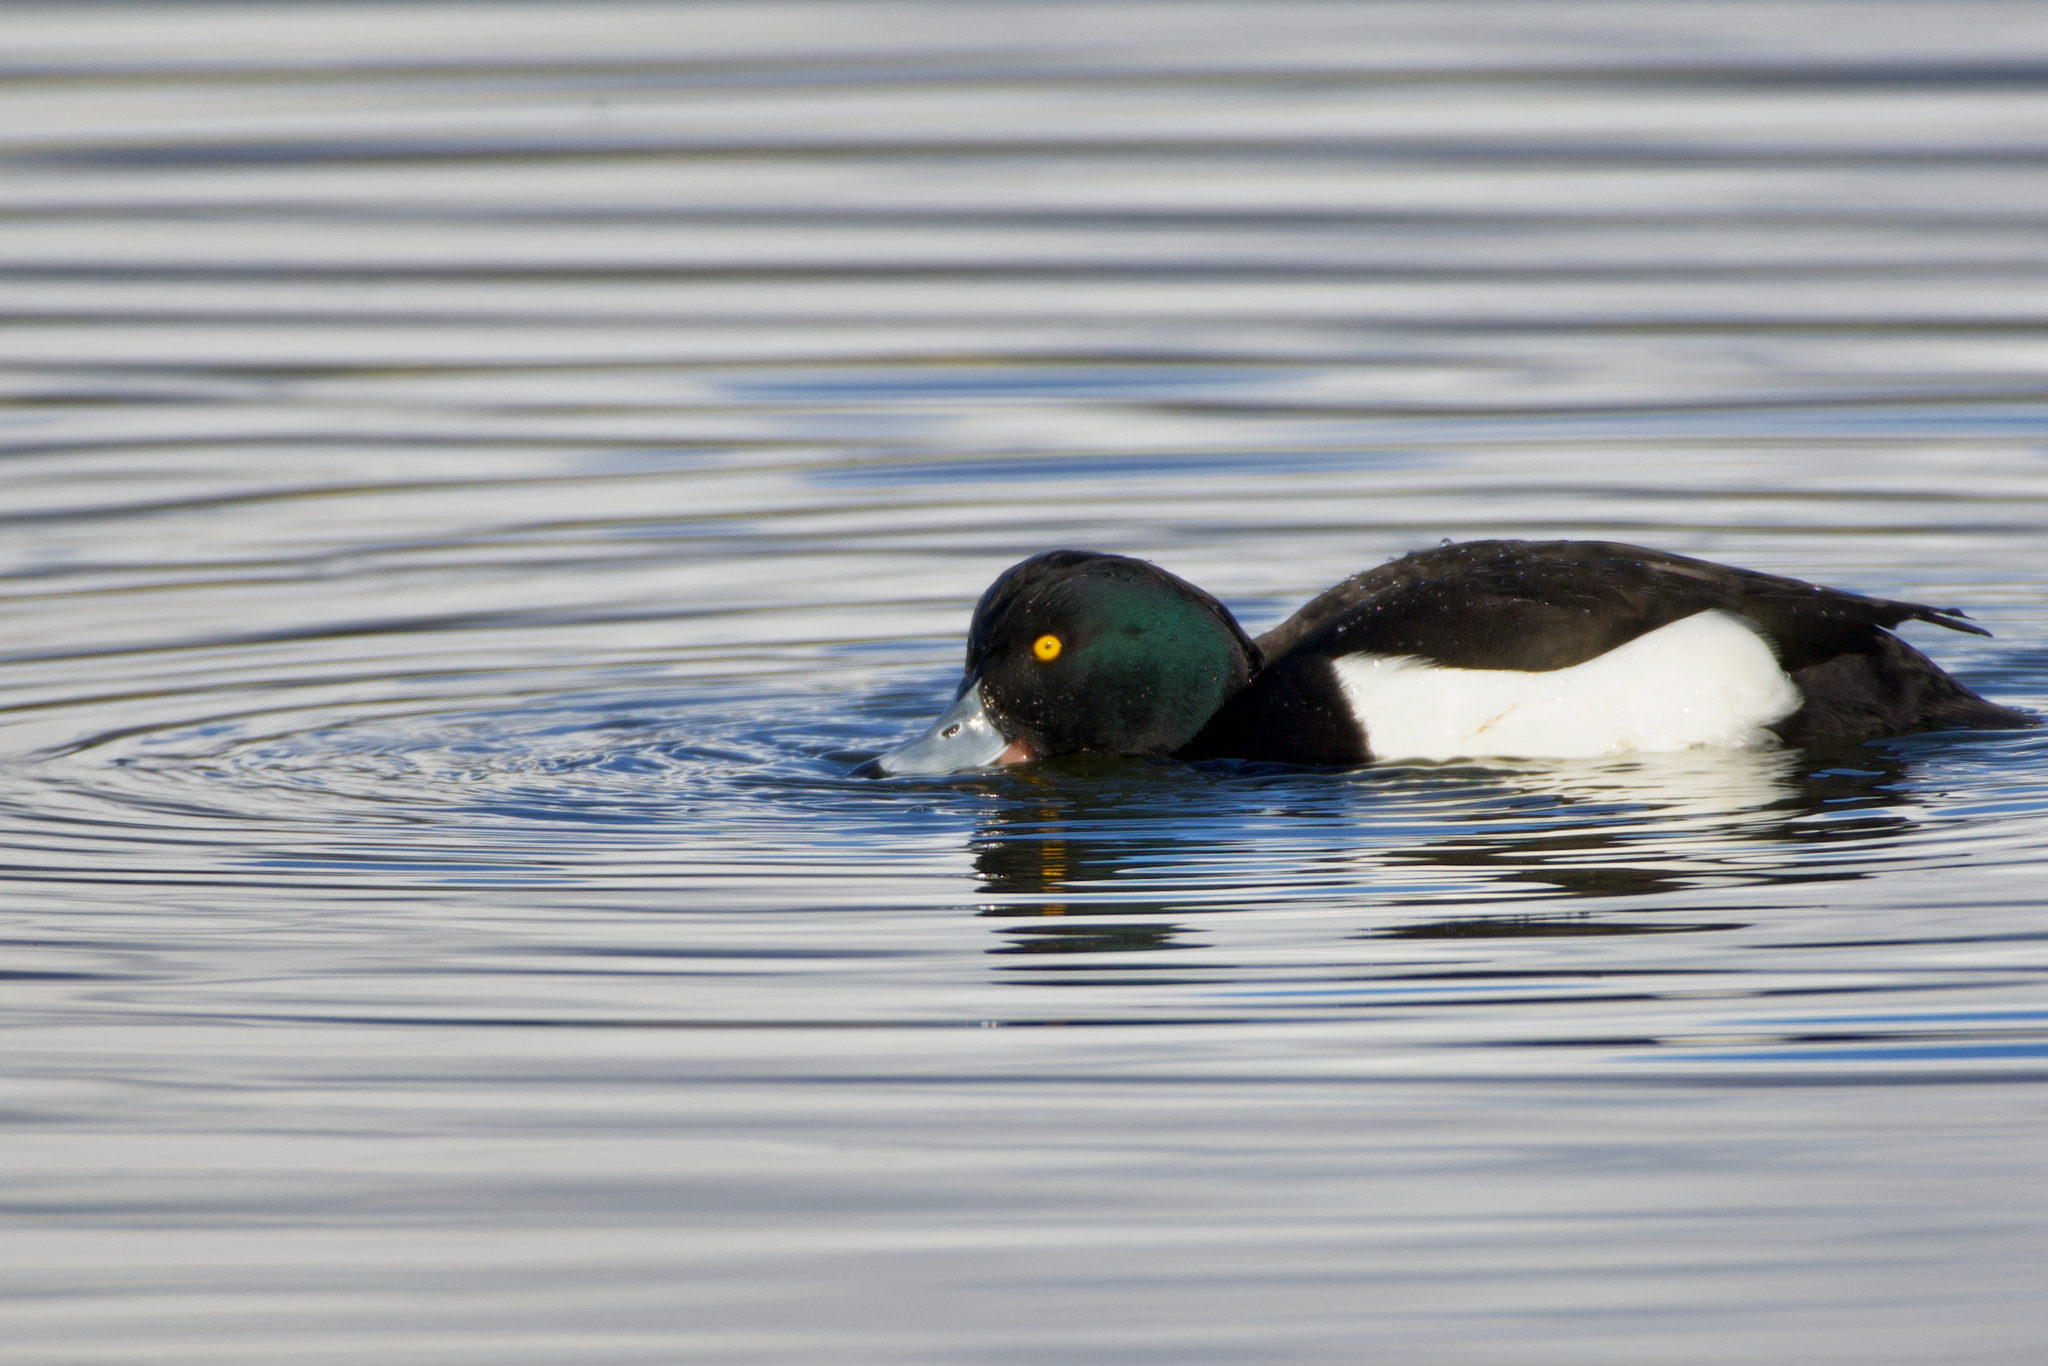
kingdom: Animalia
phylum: Chordata
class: Aves
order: Anseriformes
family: Anatidae
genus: Aythya
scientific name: Aythya fuligula
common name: Tufted duck
